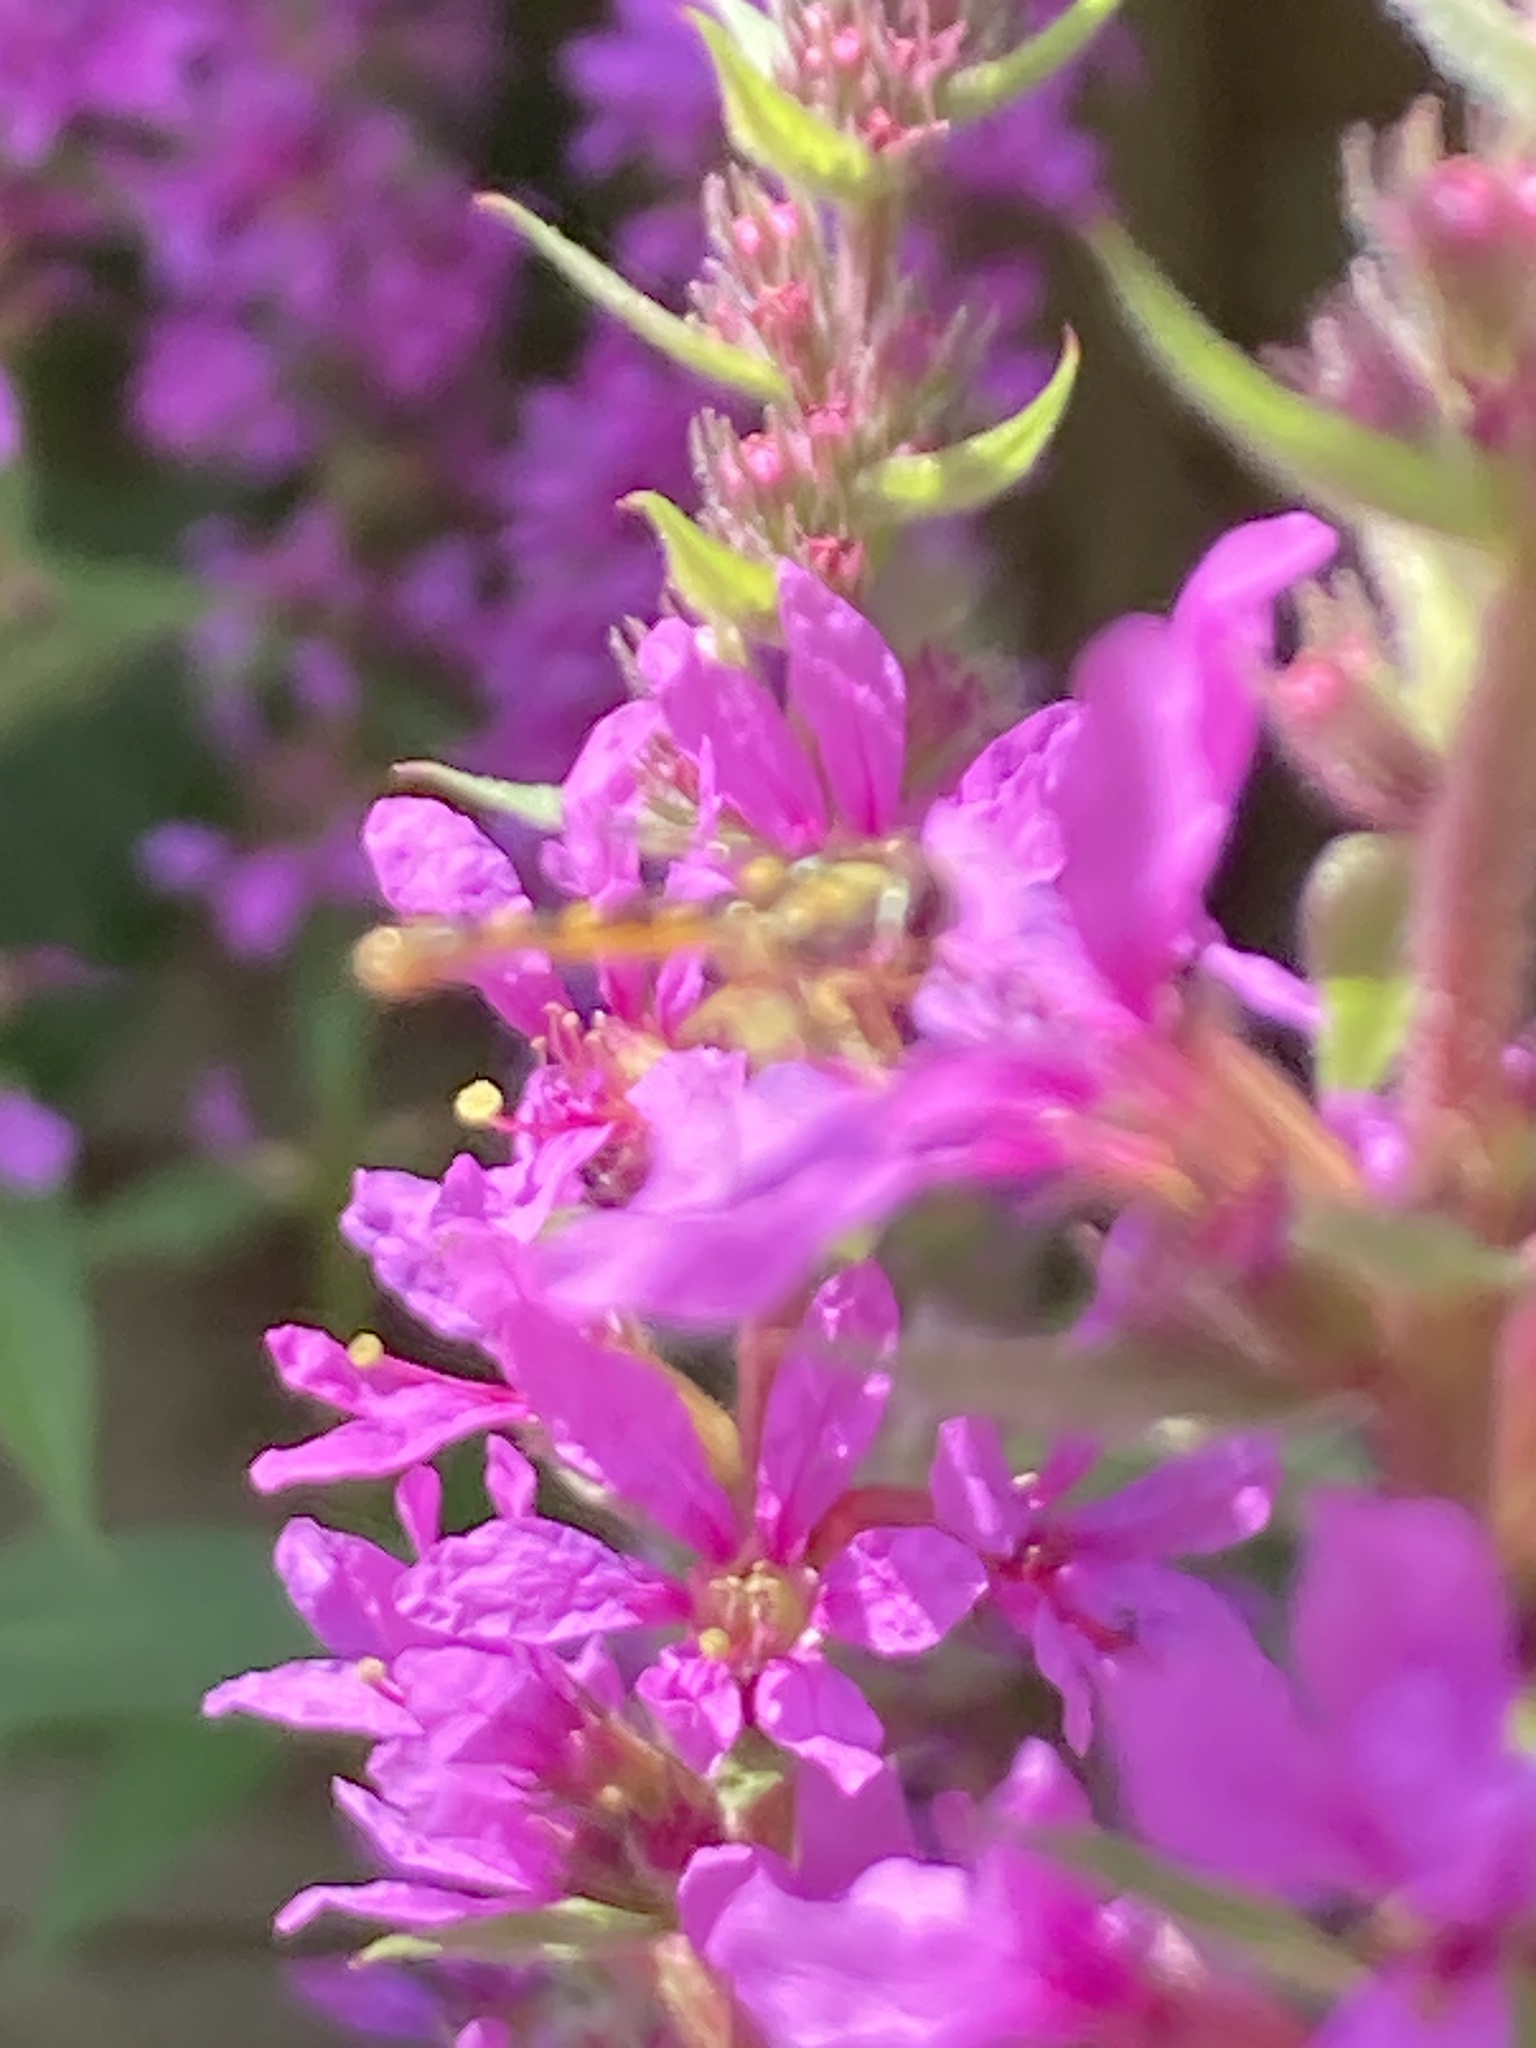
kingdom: Animalia
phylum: Arthropoda
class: Insecta
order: Diptera
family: Syrphidae
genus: Sphaerophoria
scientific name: Sphaerophoria
